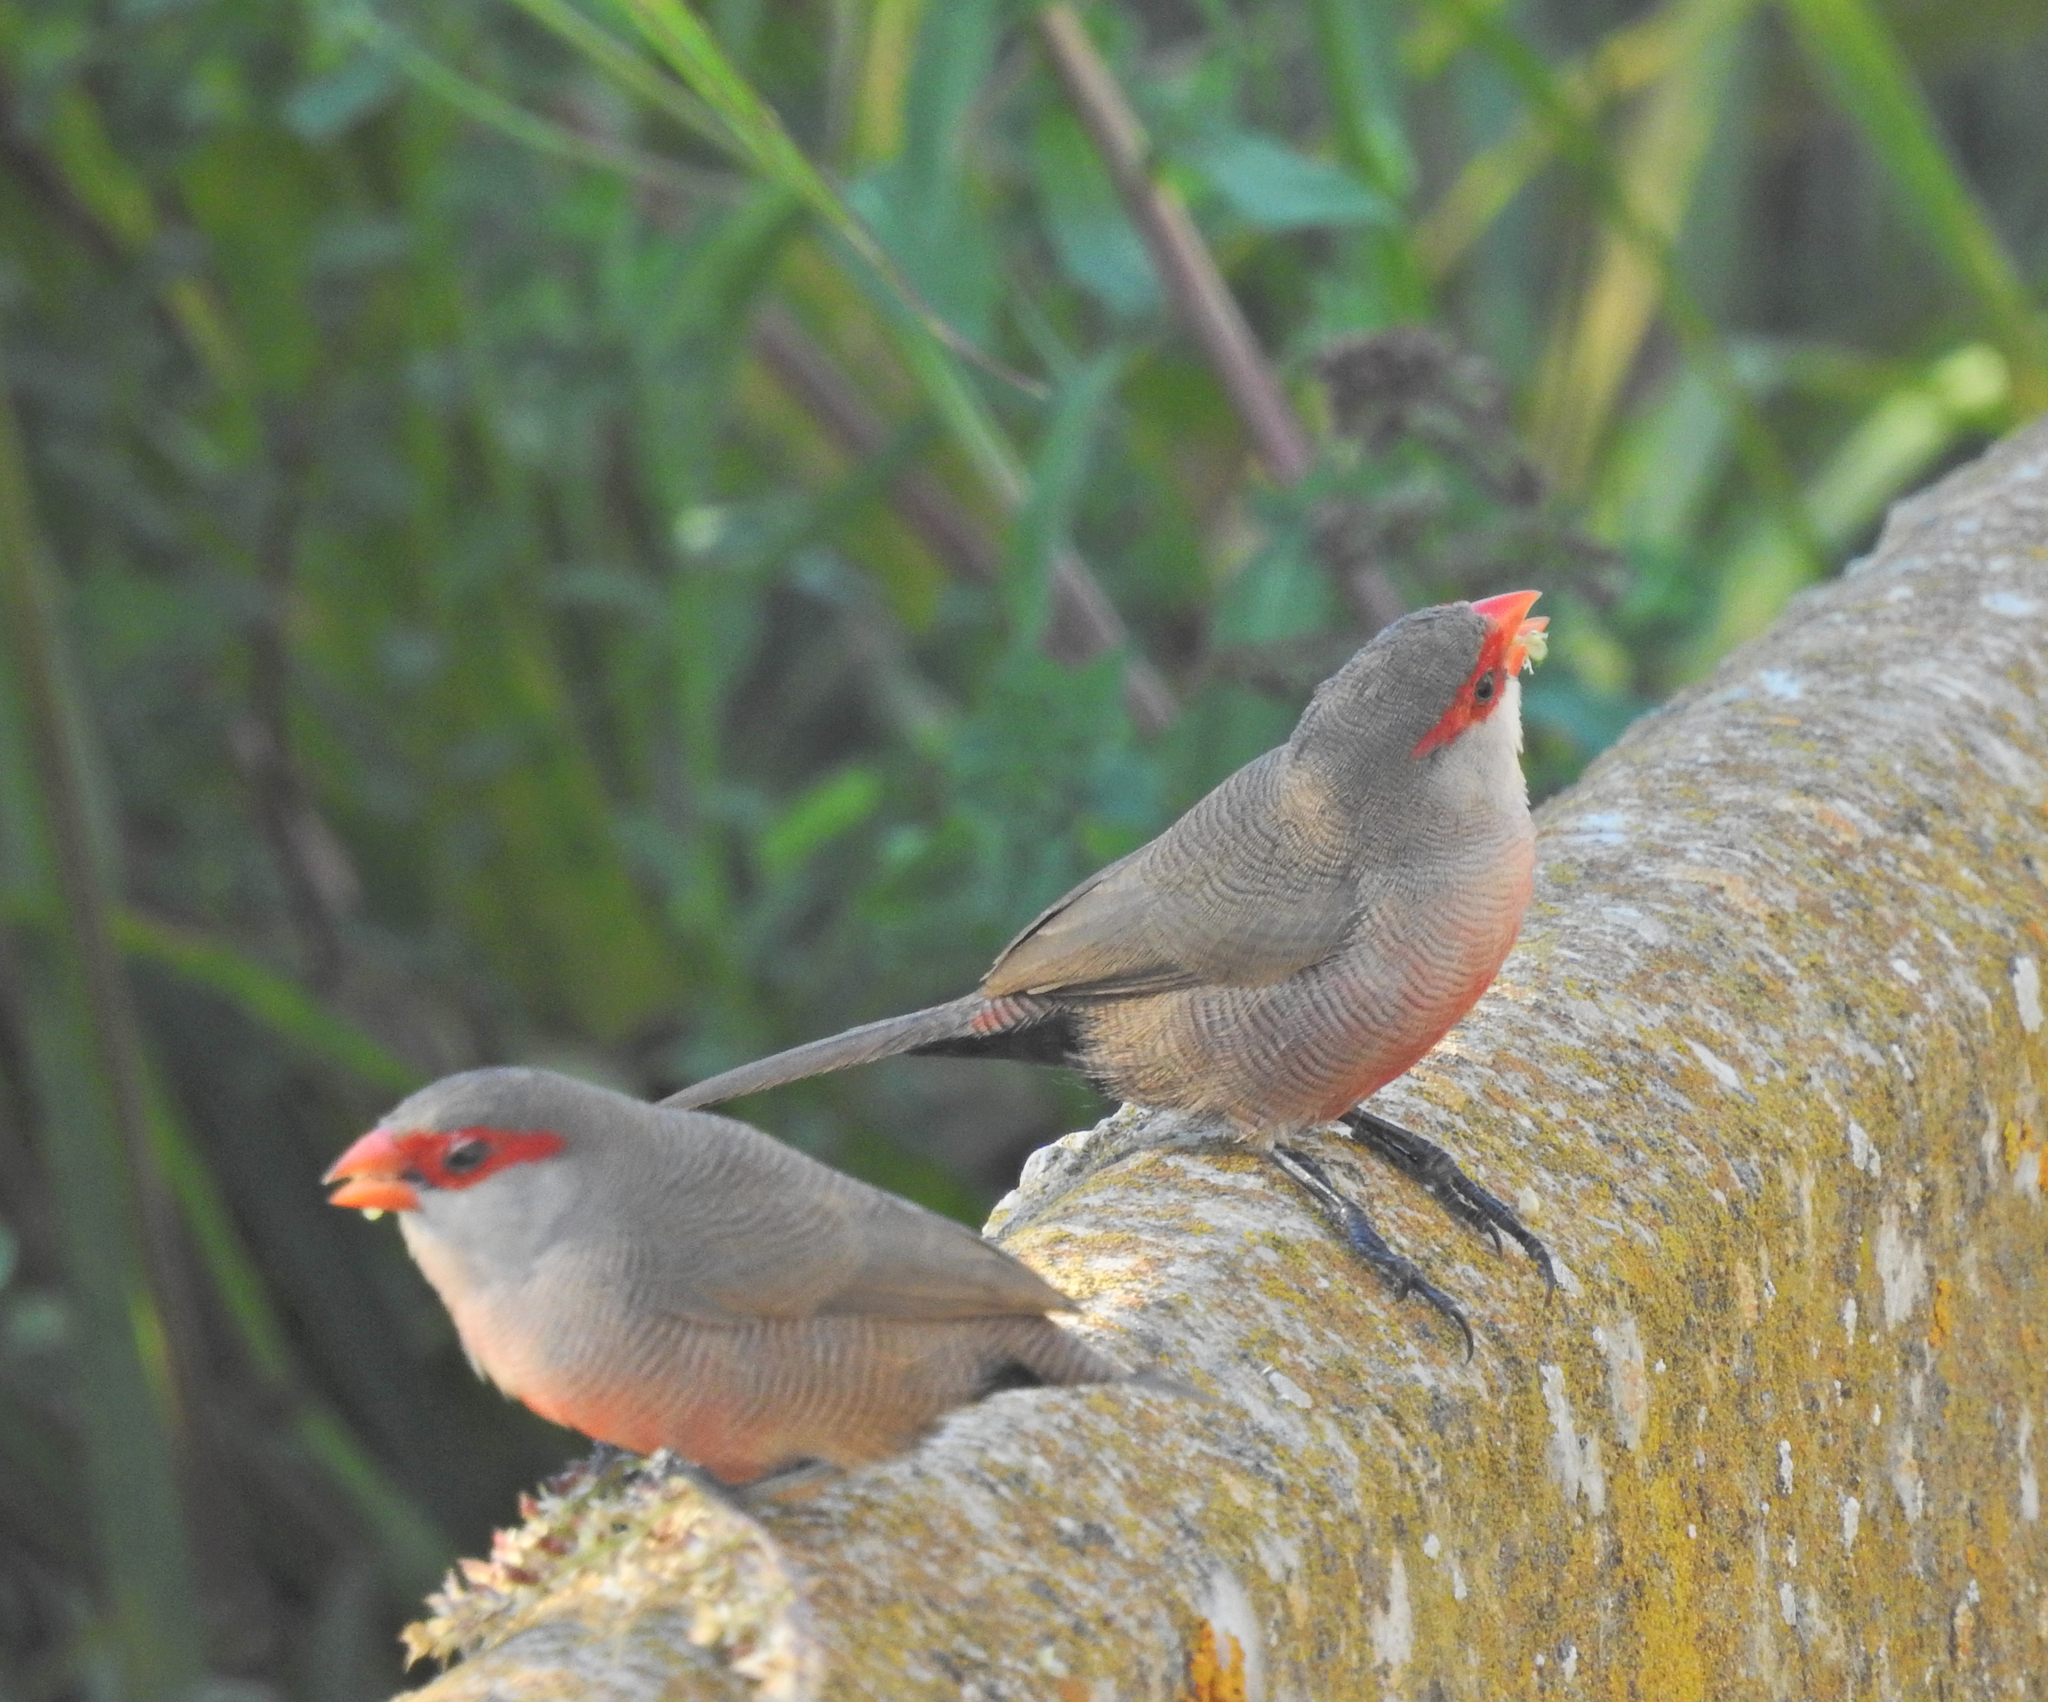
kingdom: Animalia
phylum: Chordata
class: Aves
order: Passeriformes
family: Estrildidae
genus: Estrilda
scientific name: Estrilda astrild
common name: Common waxbill
